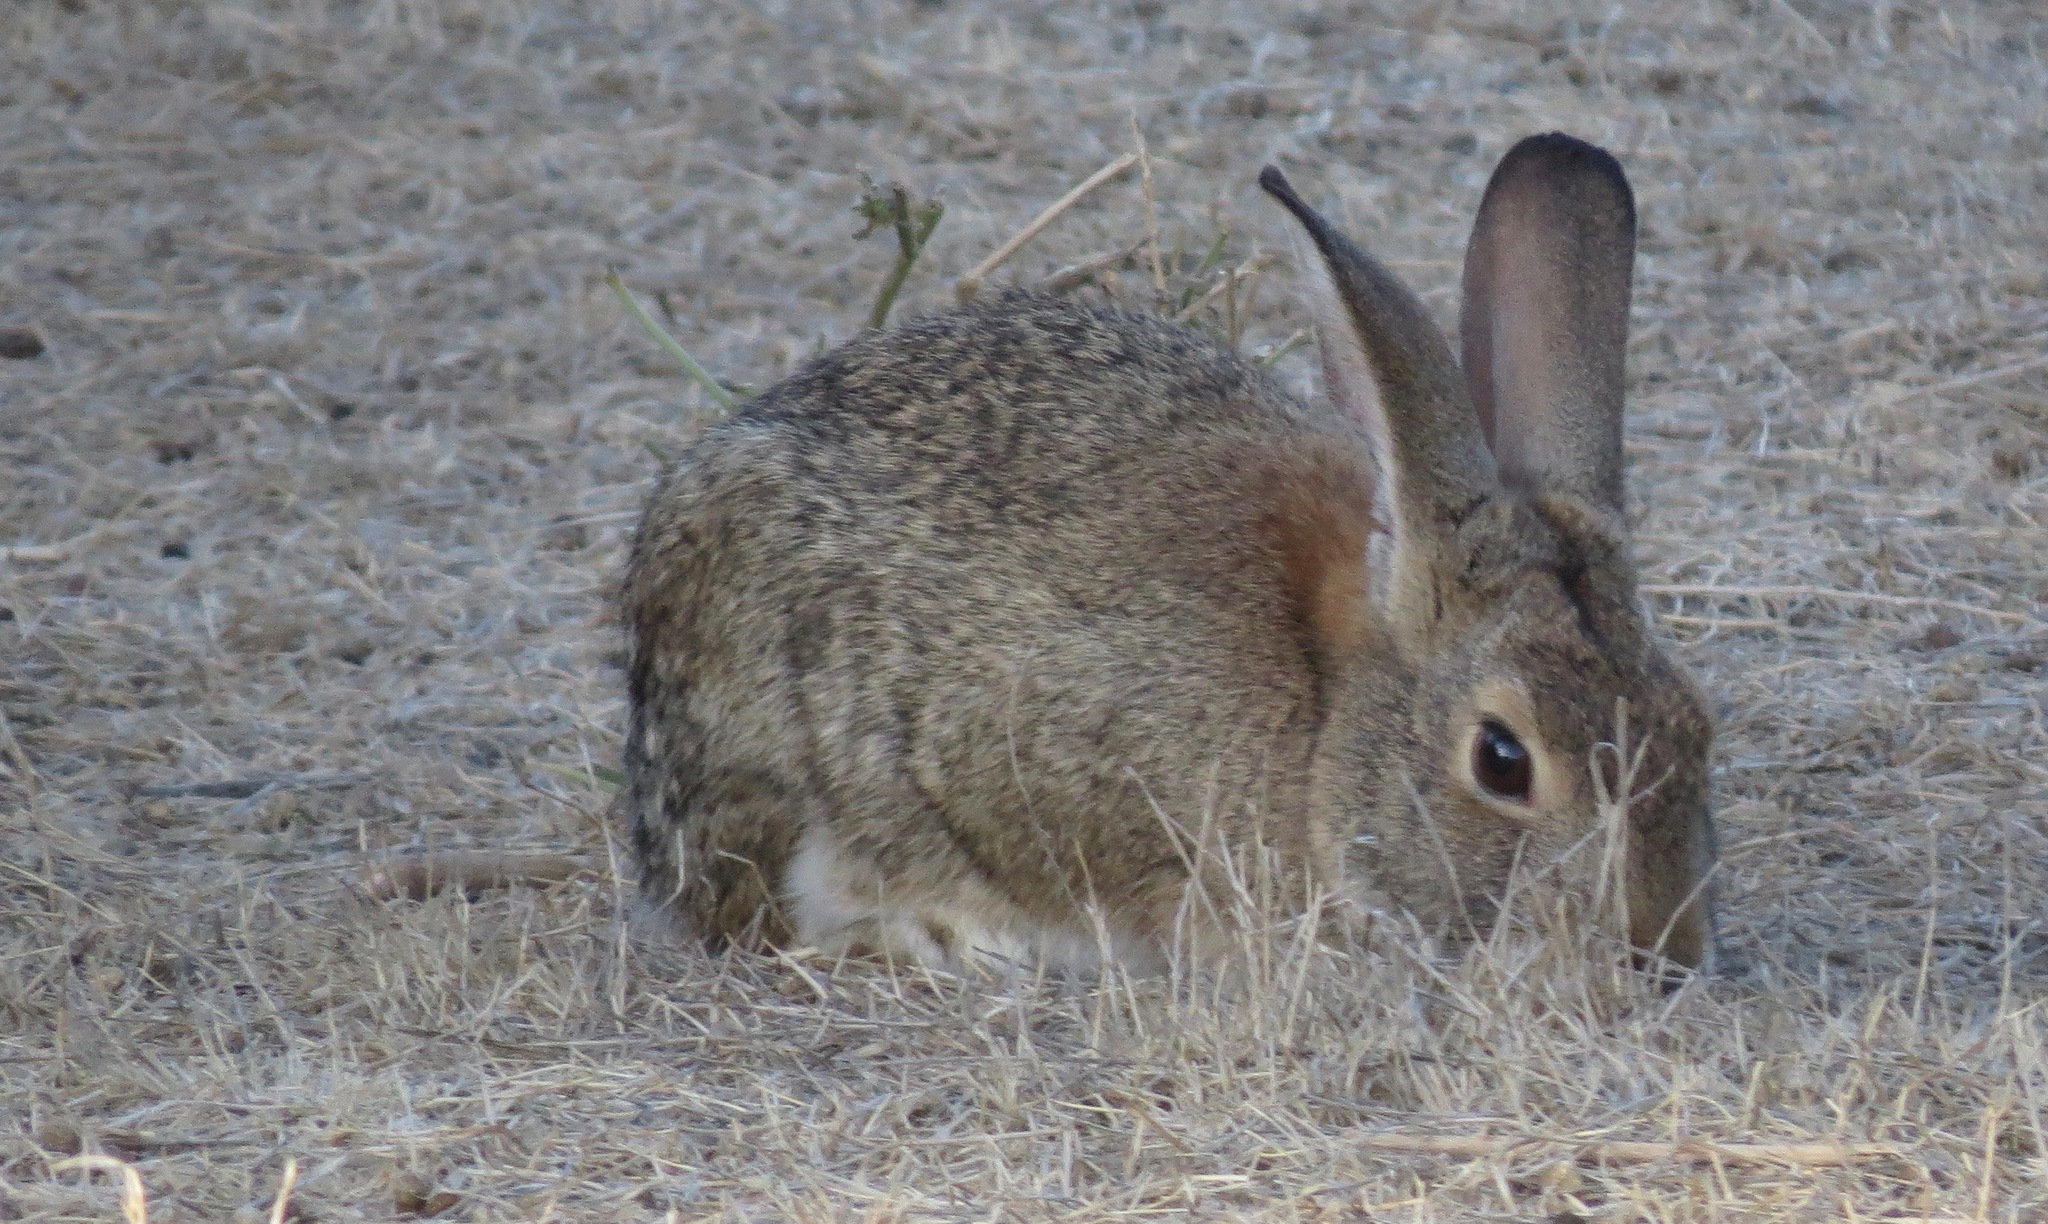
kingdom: Animalia
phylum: Chordata
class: Mammalia
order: Lagomorpha
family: Leporidae
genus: Sylvilagus
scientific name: Sylvilagus audubonii
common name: Desert cottontail
